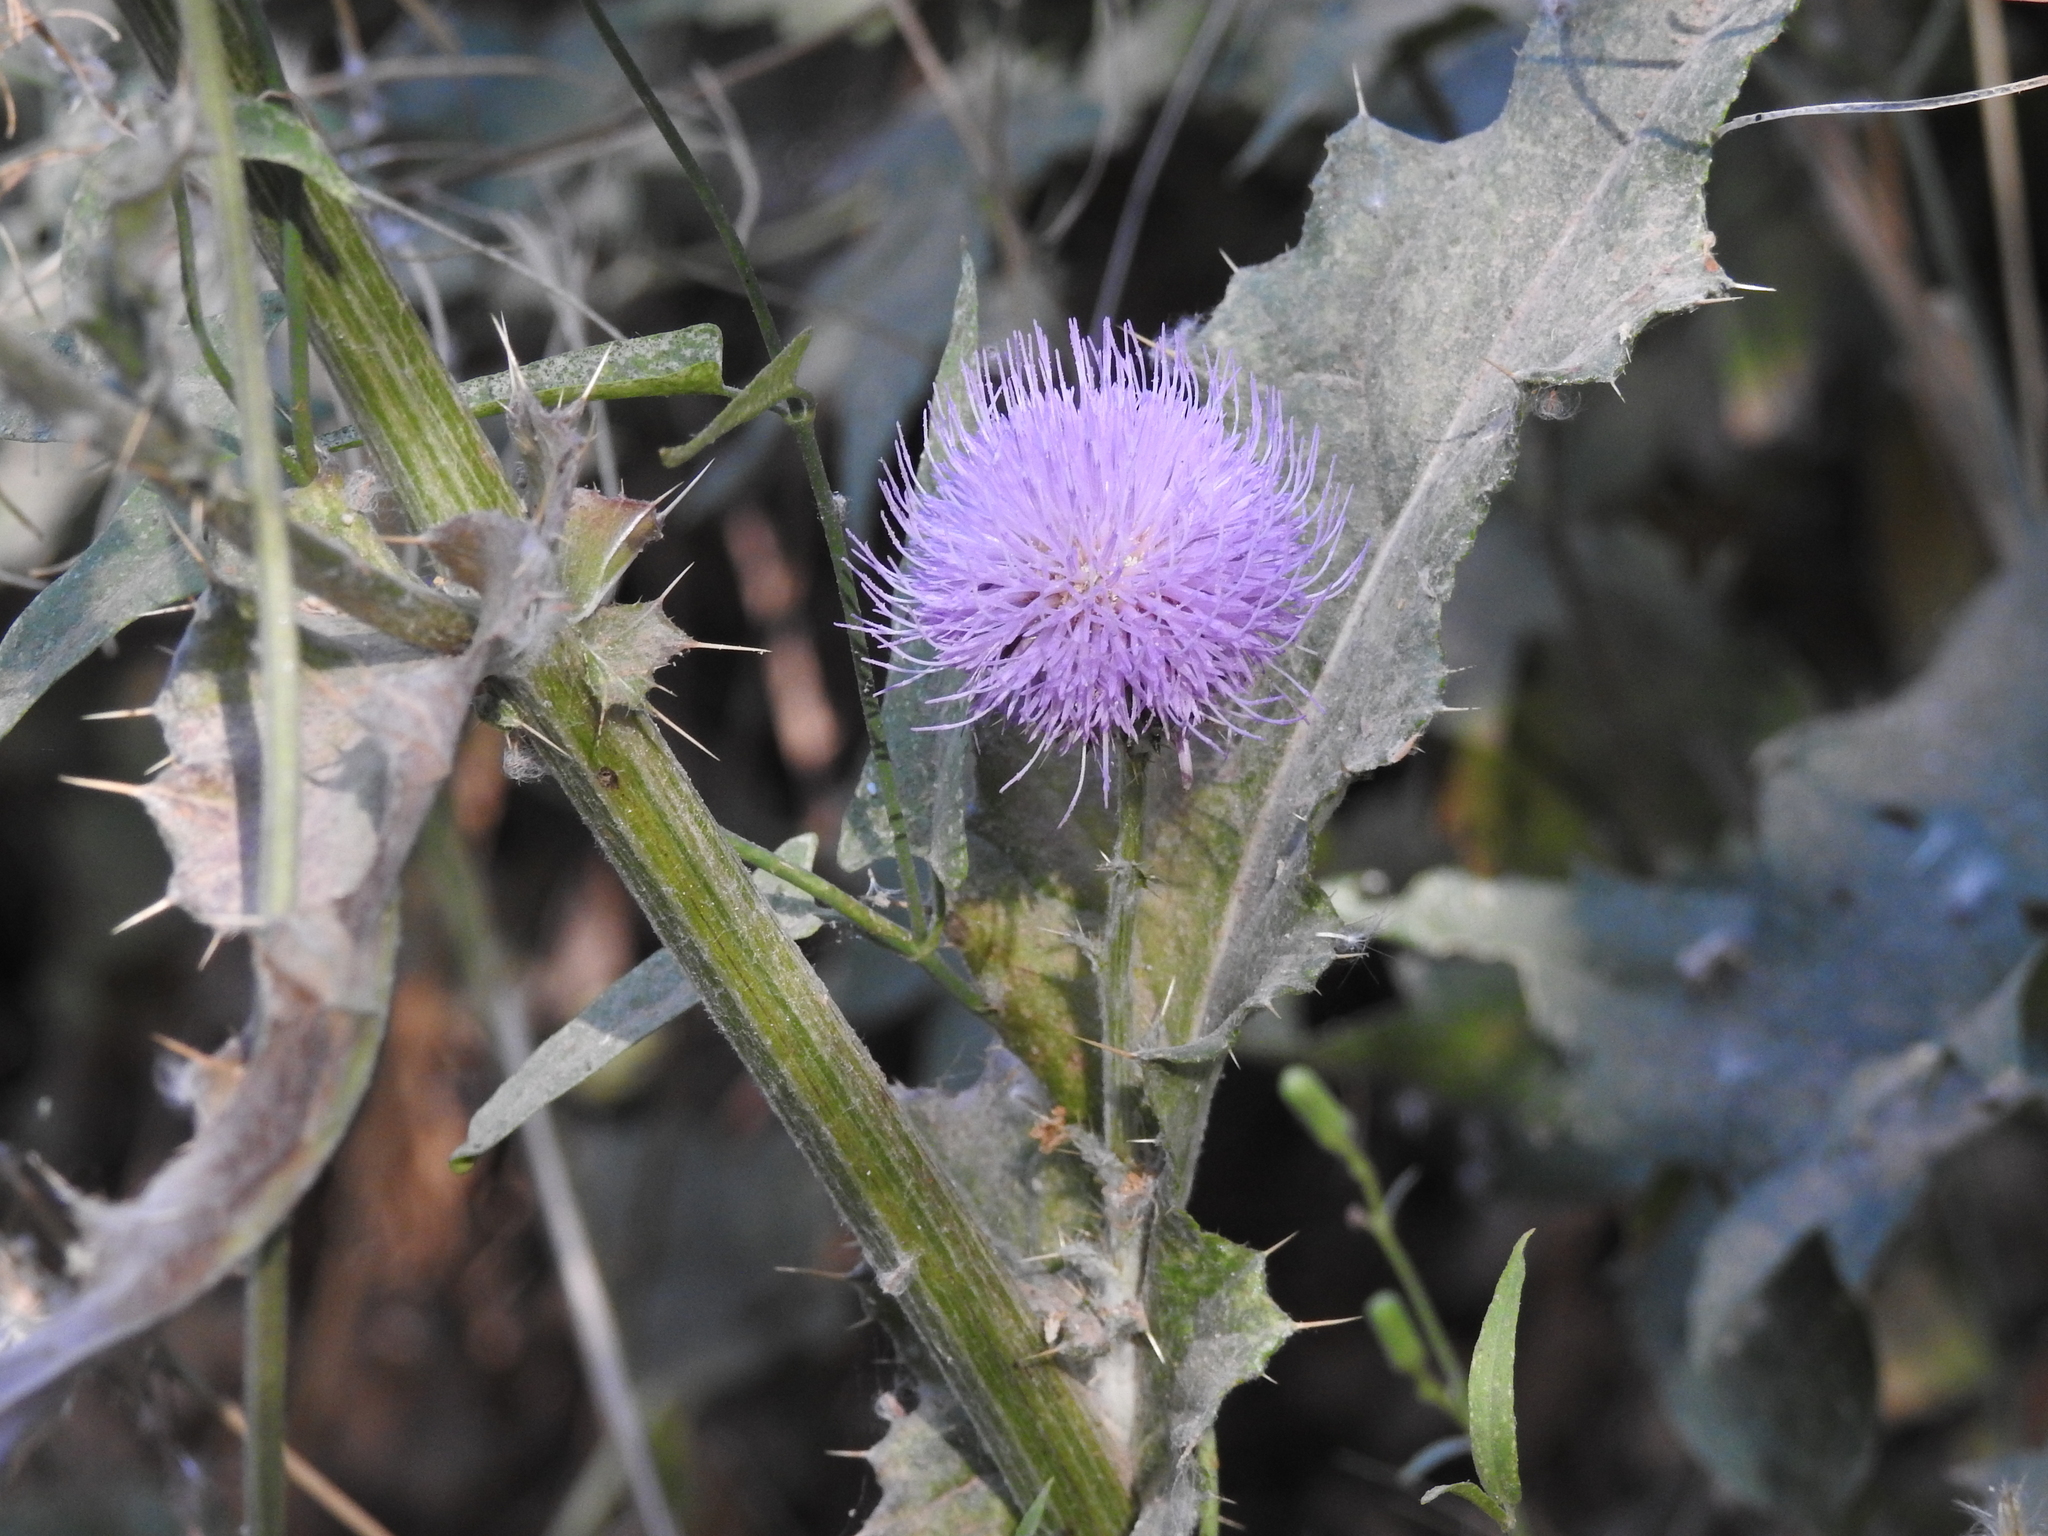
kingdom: Plantae
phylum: Tracheophyta
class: Magnoliopsida
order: Asterales
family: Asteraceae
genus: Cirsium
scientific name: Cirsium neomexicanum
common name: New mexico thistle
